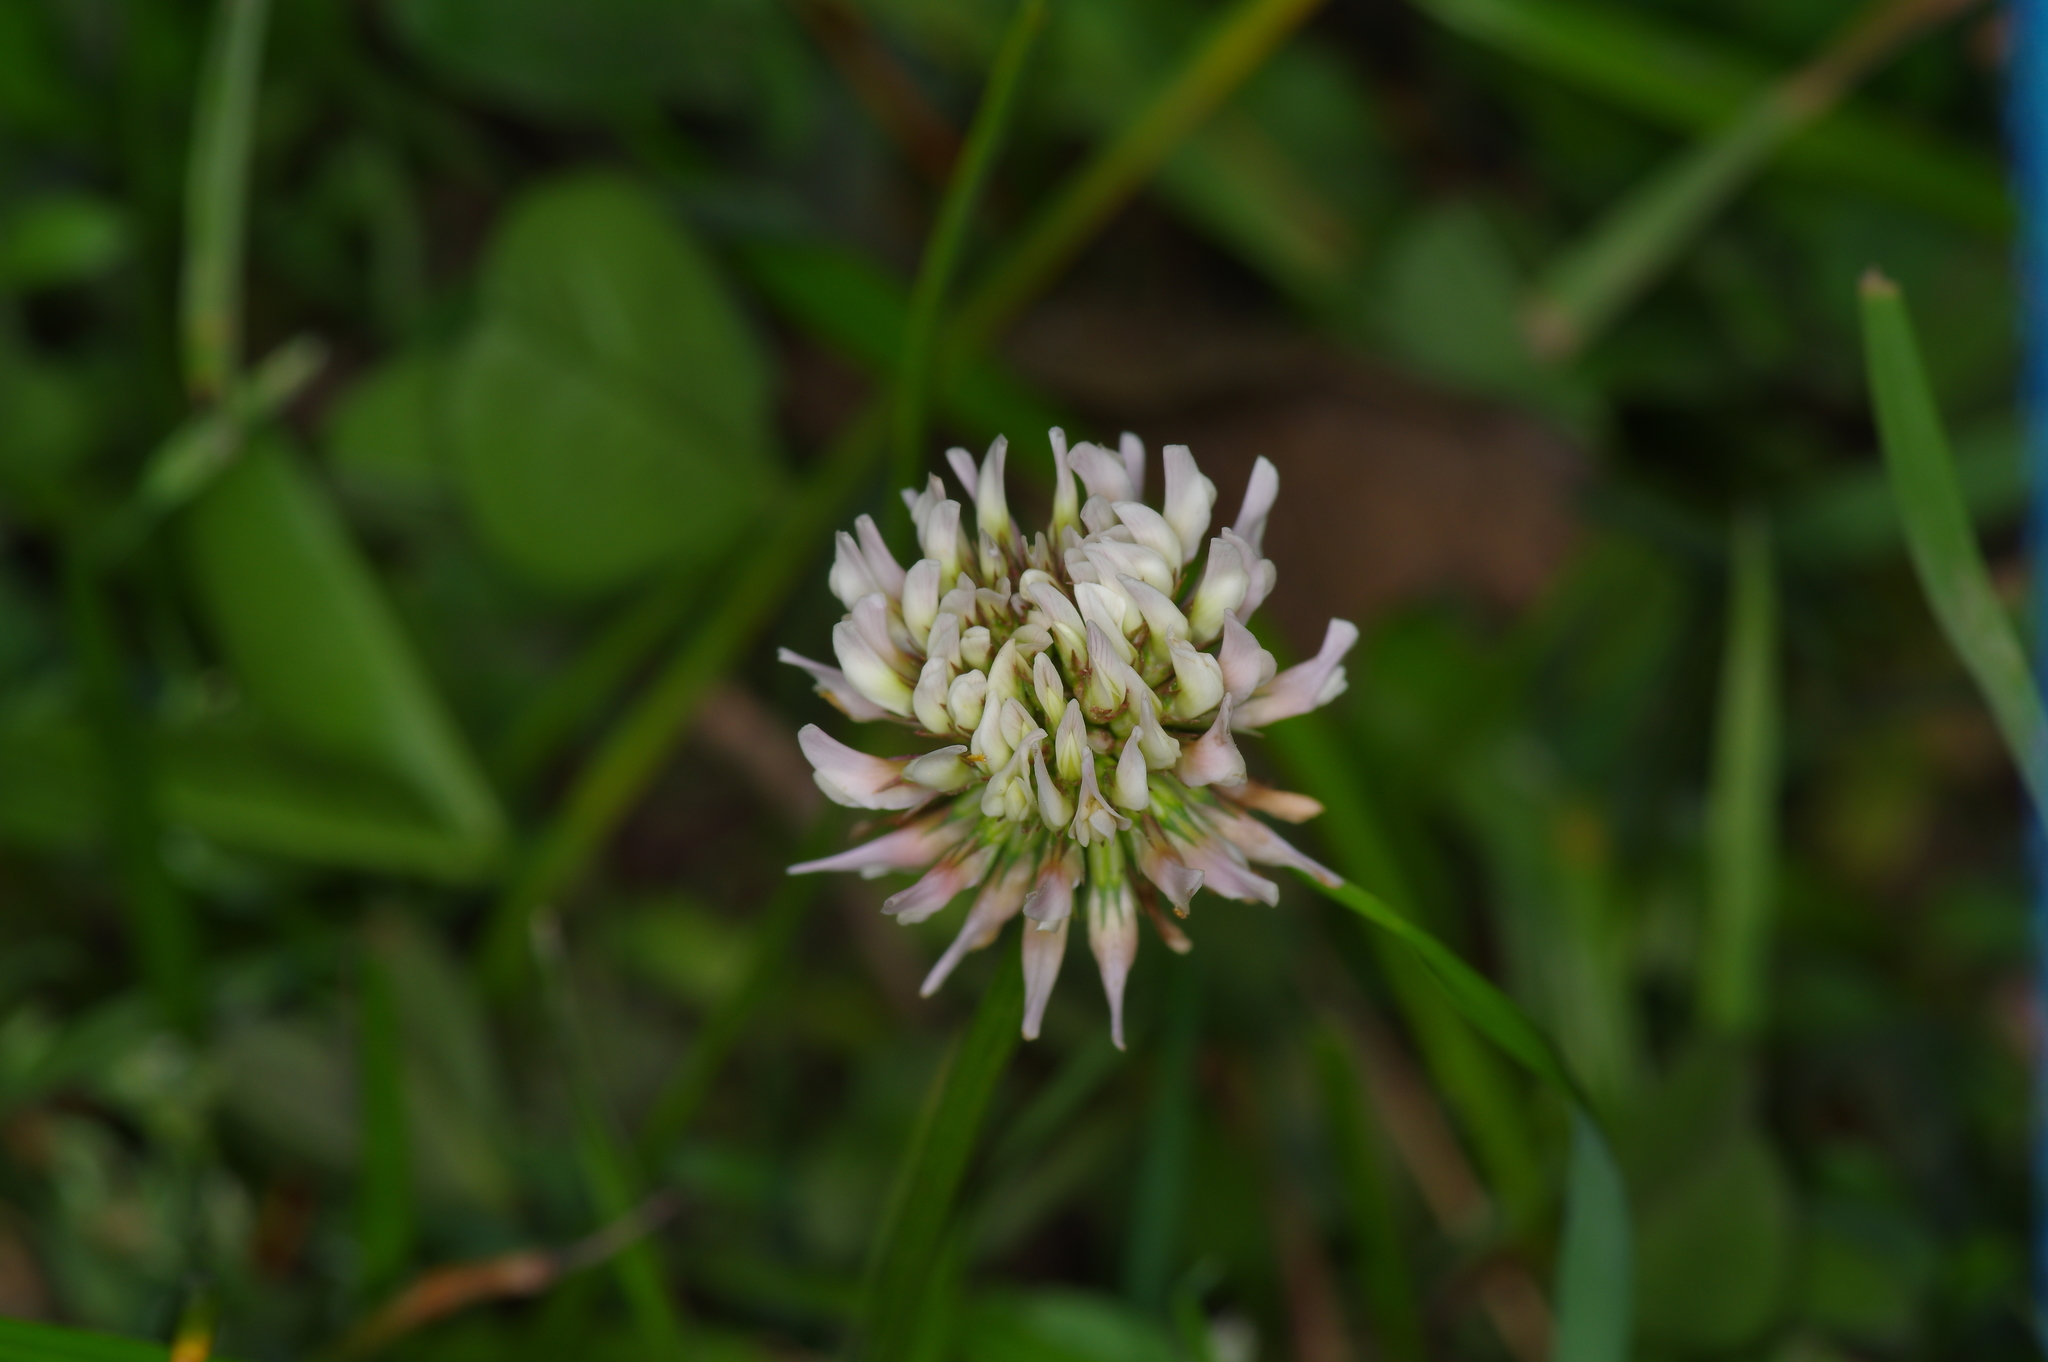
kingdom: Plantae
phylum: Tracheophyta
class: Magnoliopsida
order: Fabales
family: Fabaceae
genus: Trifolium
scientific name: Trifolium repens
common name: White clover
